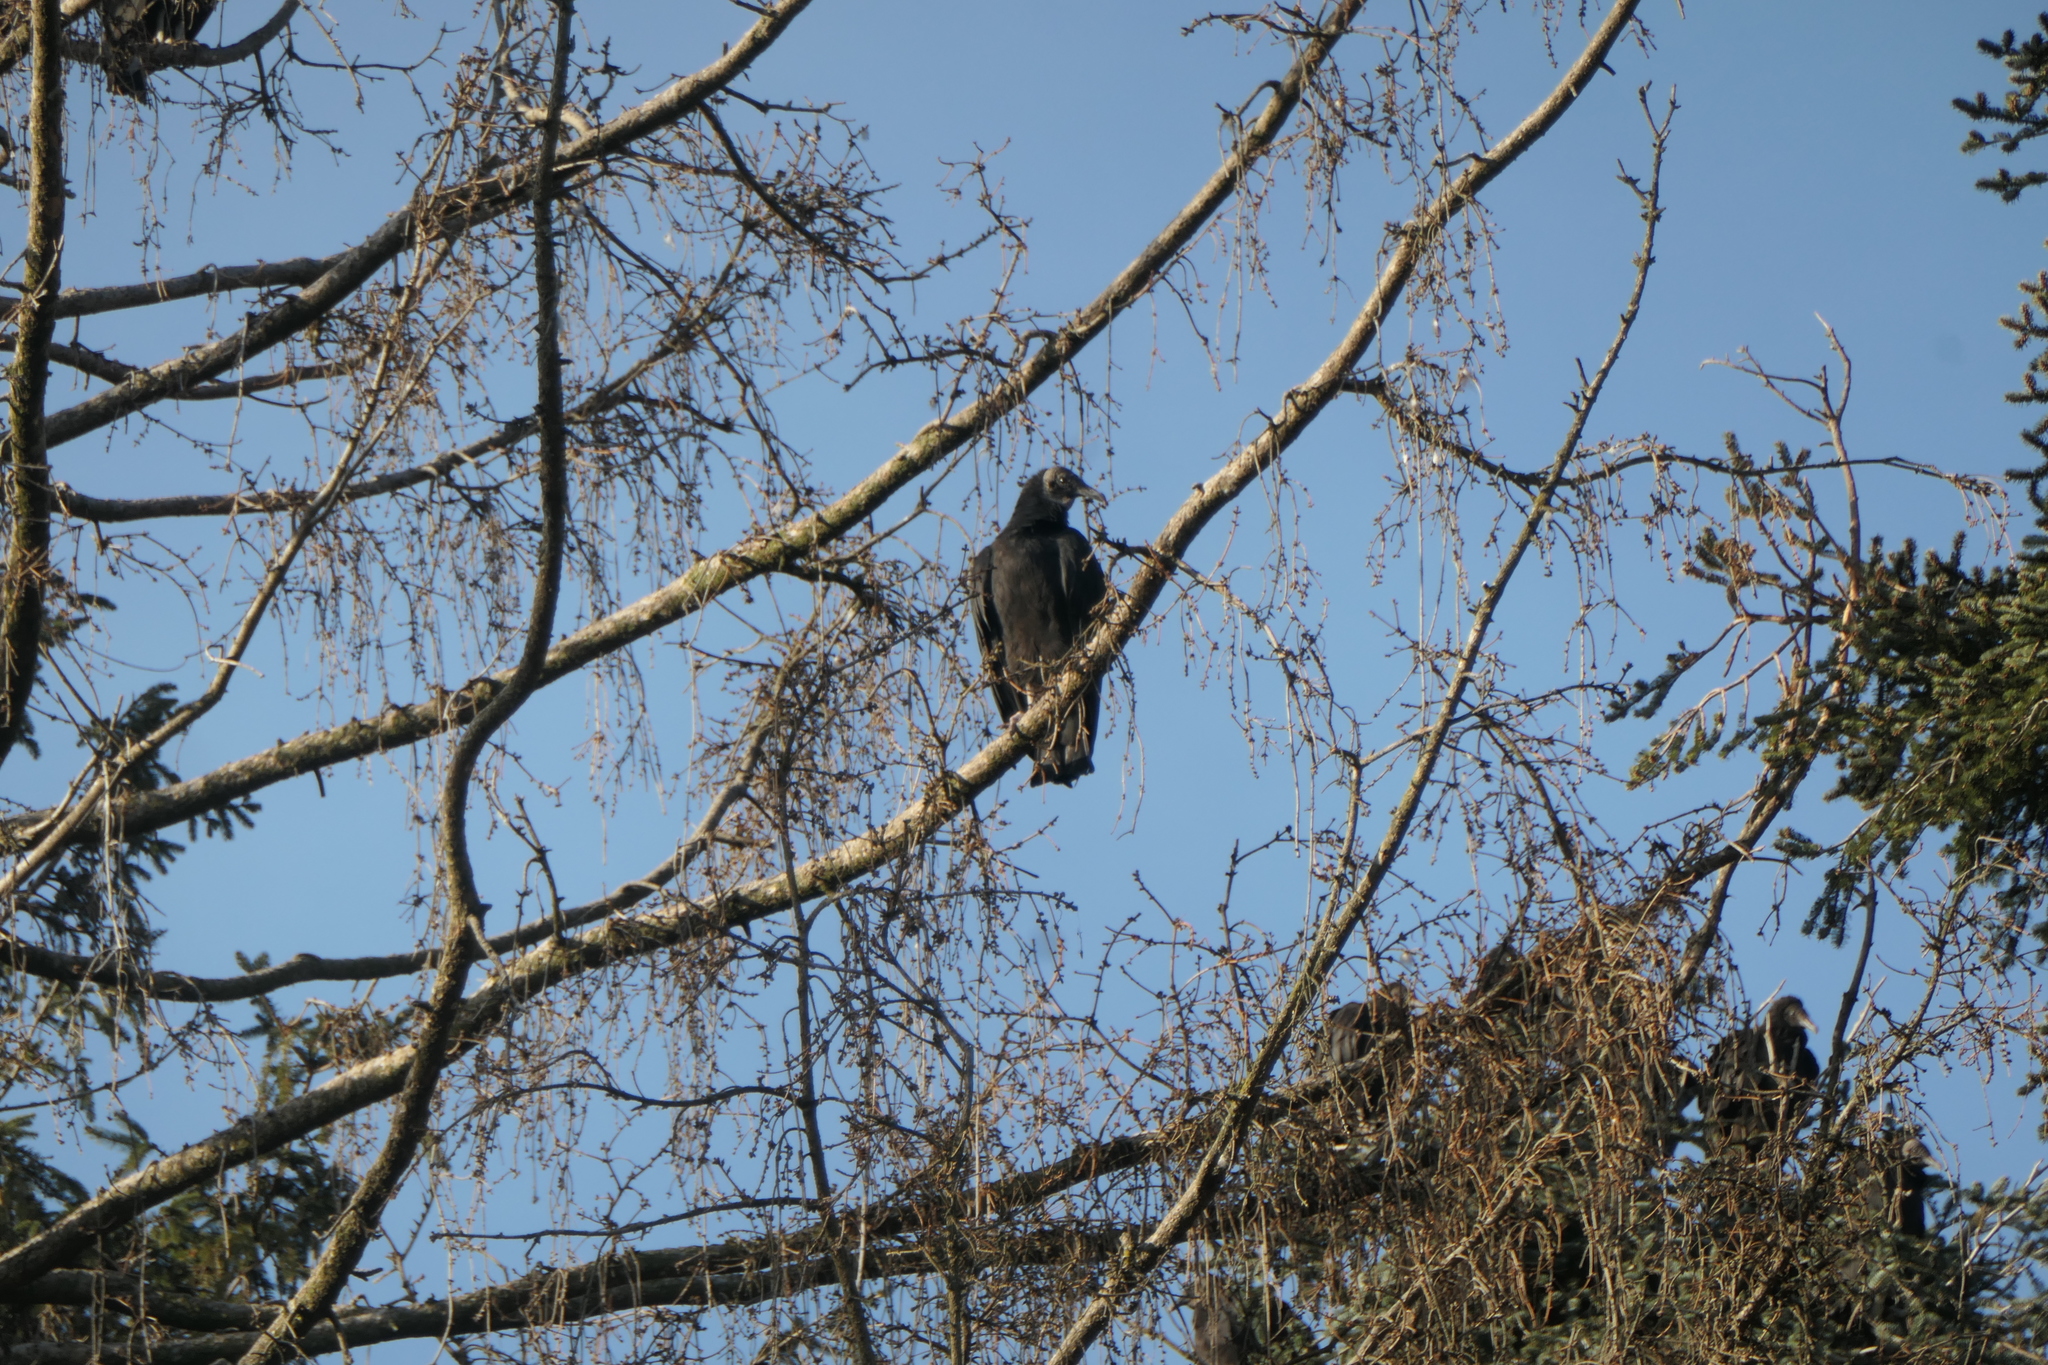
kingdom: Animalia
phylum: Chordata
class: Aves
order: Accipitriformes
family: Cathartidae
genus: Coragyps
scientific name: Coragyps atratus
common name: Black vulture
